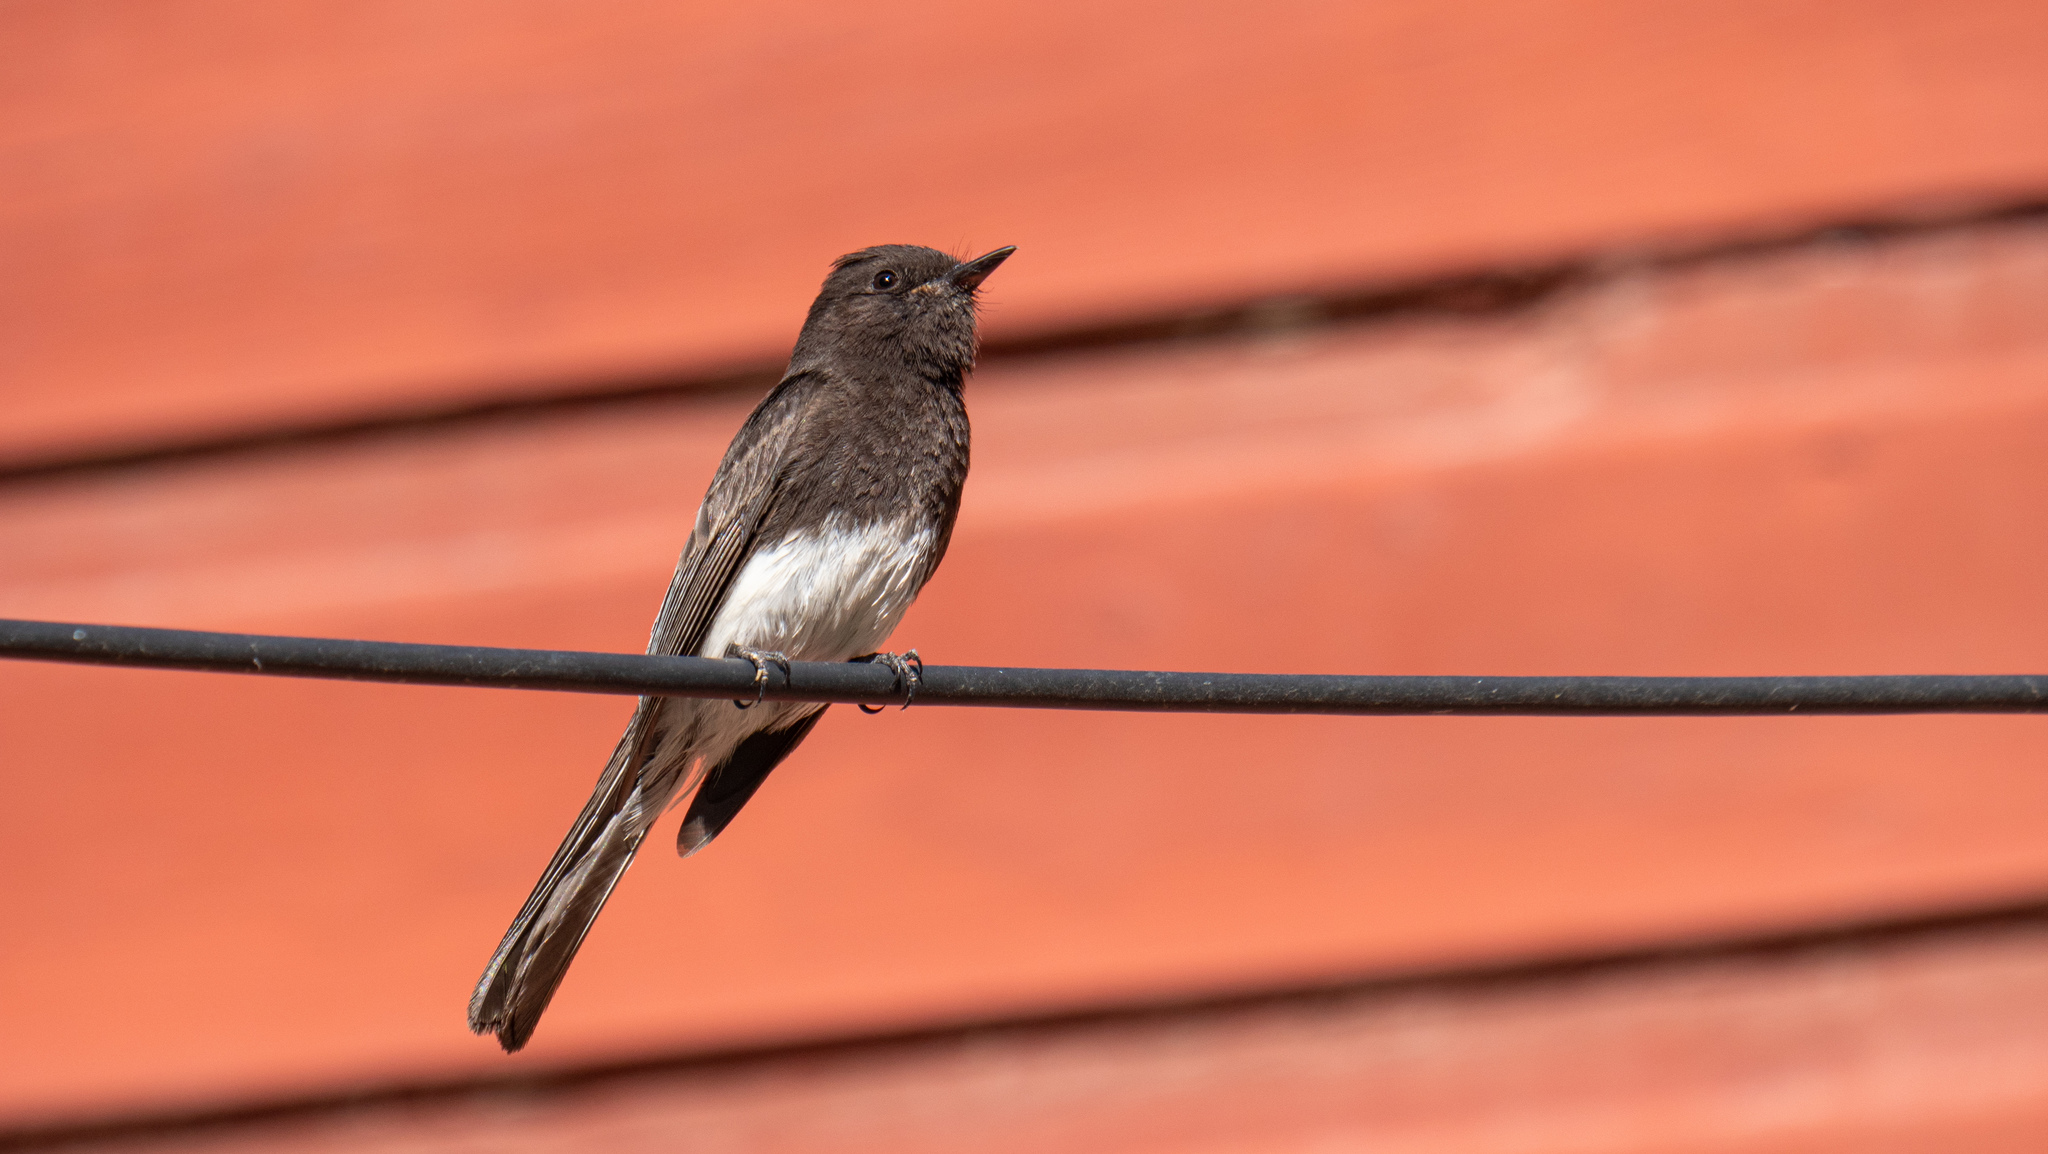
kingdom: Animalia
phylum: Chordata
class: Aves
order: Passeriformes
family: Tyrannidae
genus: Sayornis
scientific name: Sayornis nigricans
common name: Black phoebe
